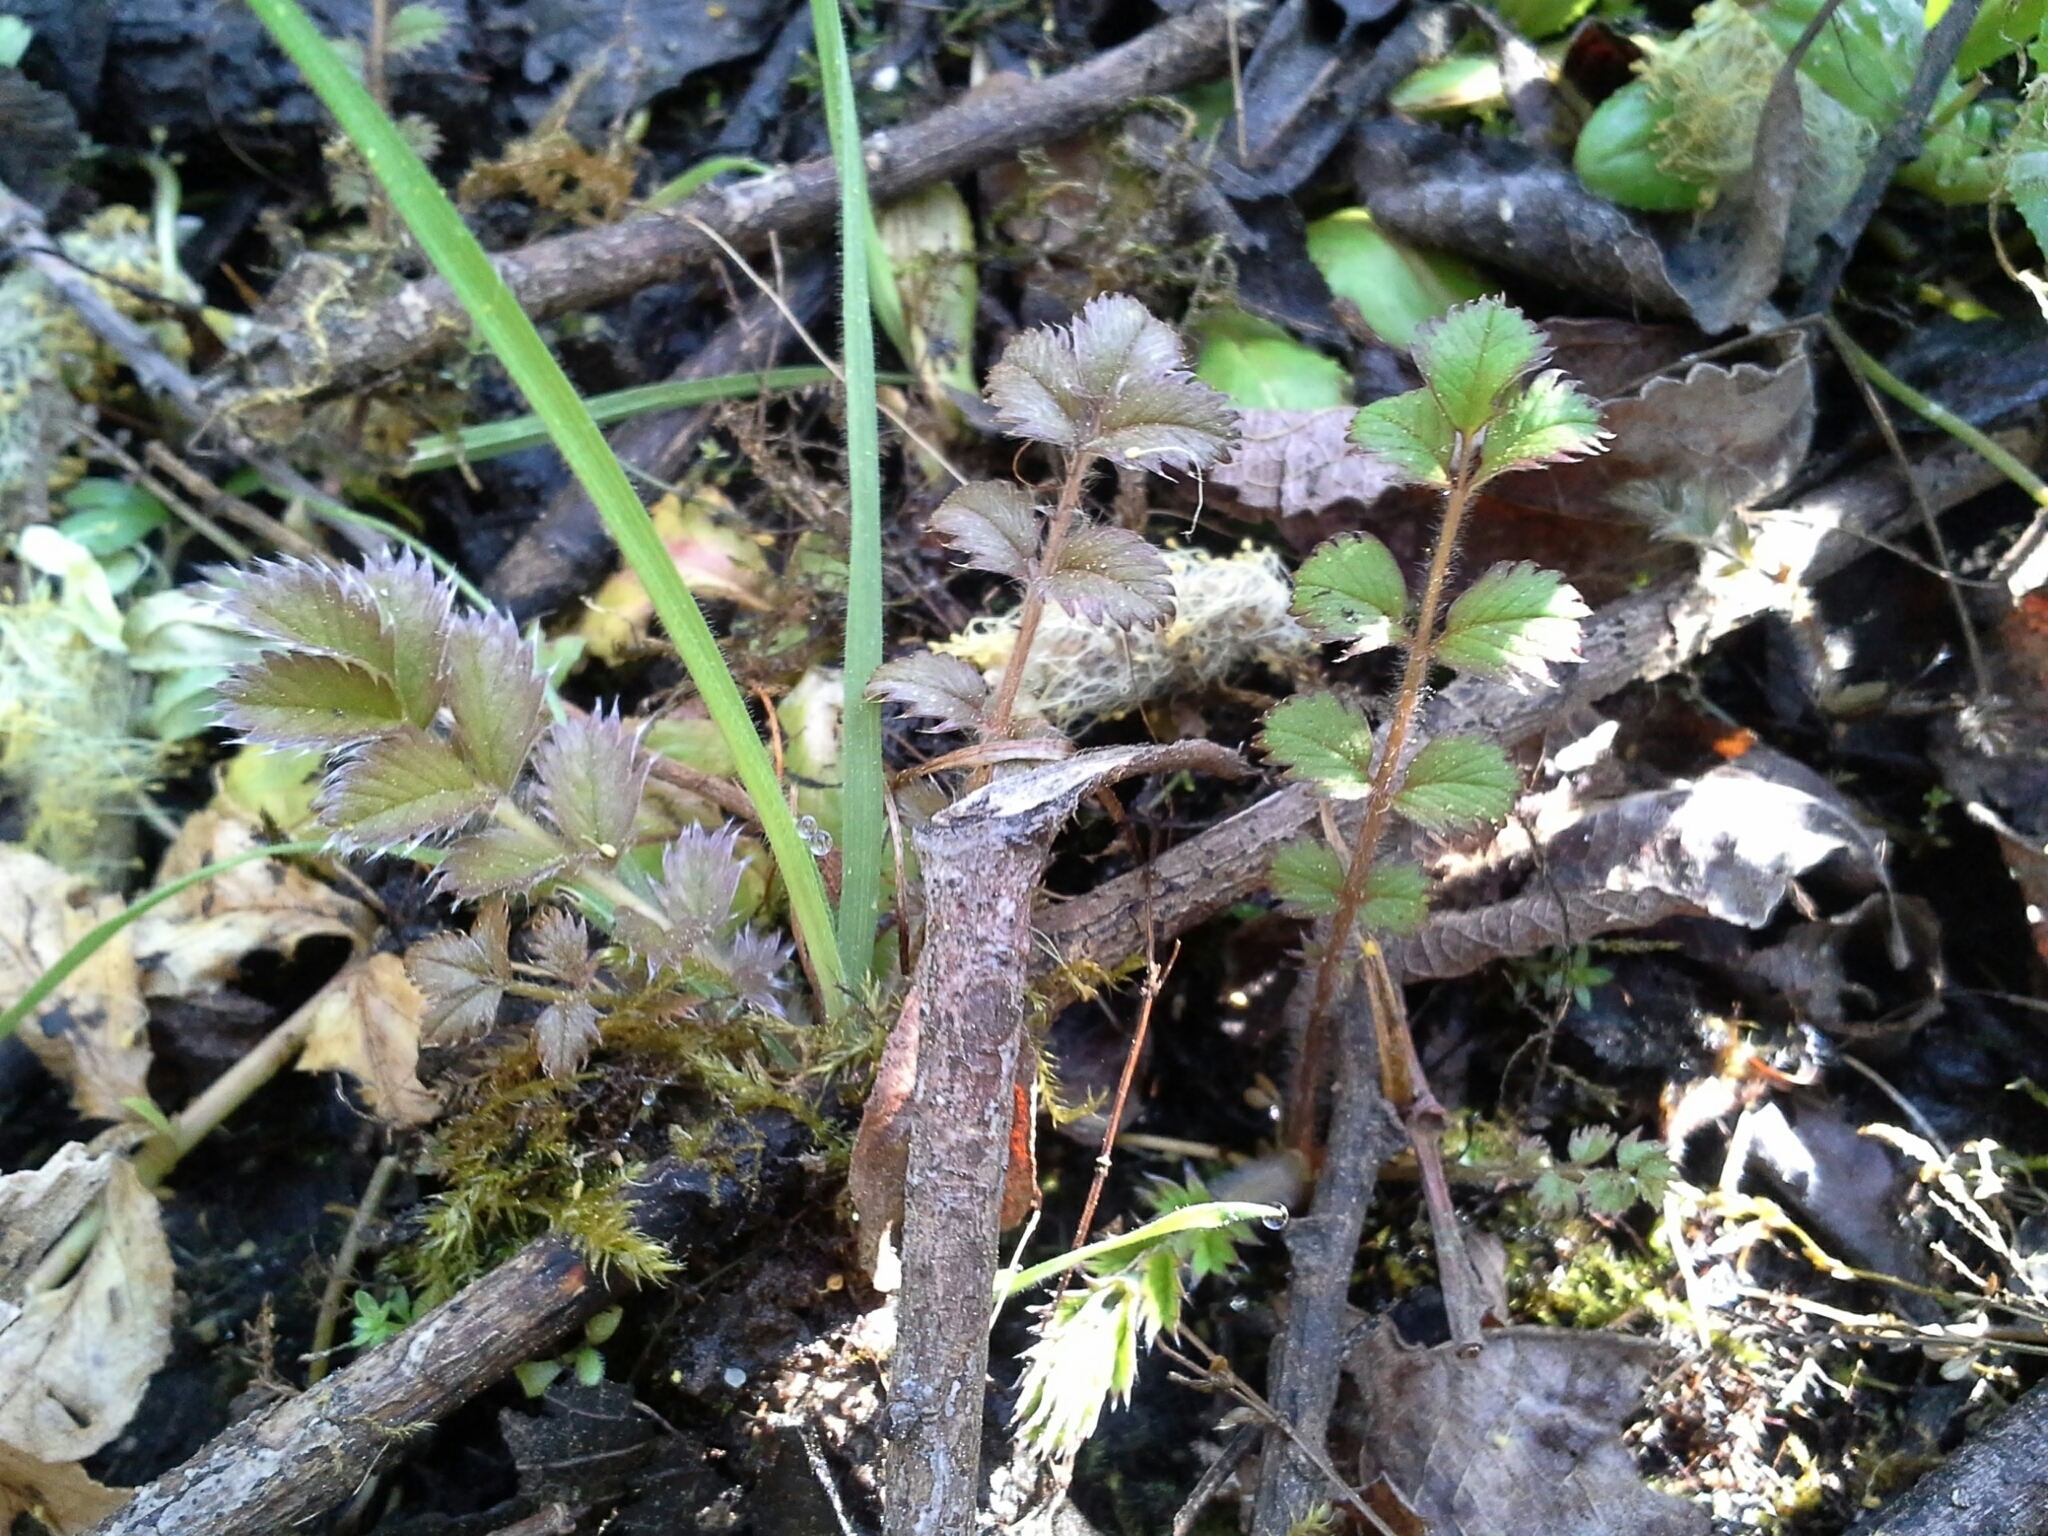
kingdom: Plantae
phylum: Tracheophyta
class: Magnoliopsida
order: Rosales
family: Rosaceae
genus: Argentina
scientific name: Argentina anserinoides
